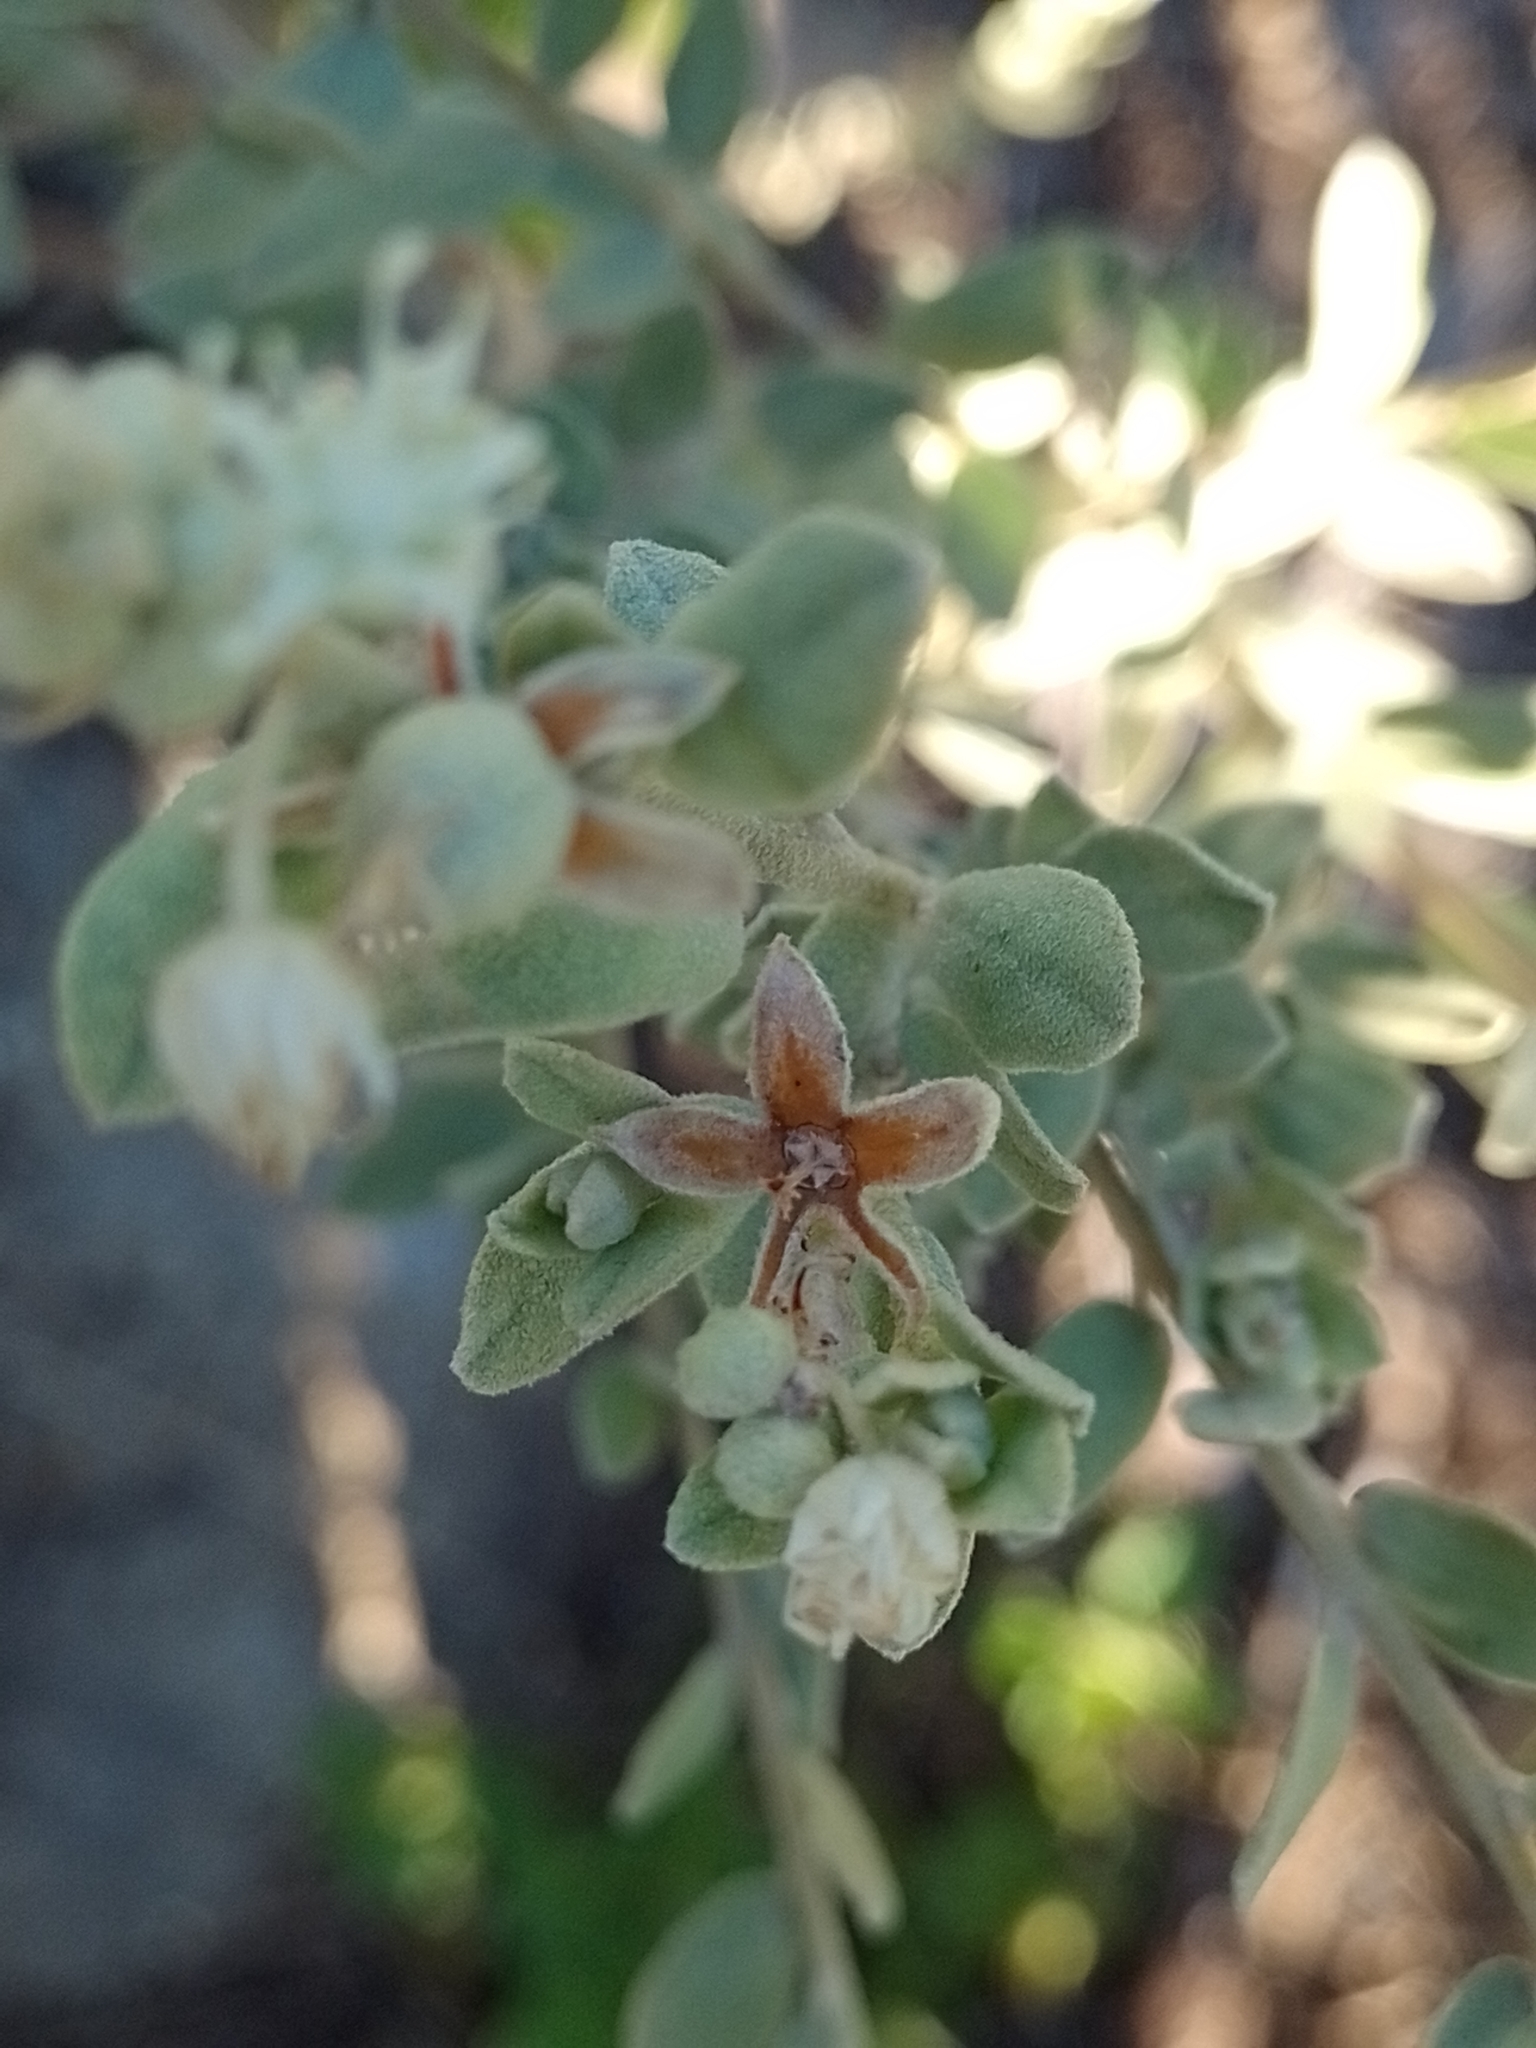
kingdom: Plantae
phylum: Tracheophyta
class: Magnoliopsida
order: Malpighiales
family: Euphorbiaceae
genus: Croton
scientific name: Croton parvifolius
